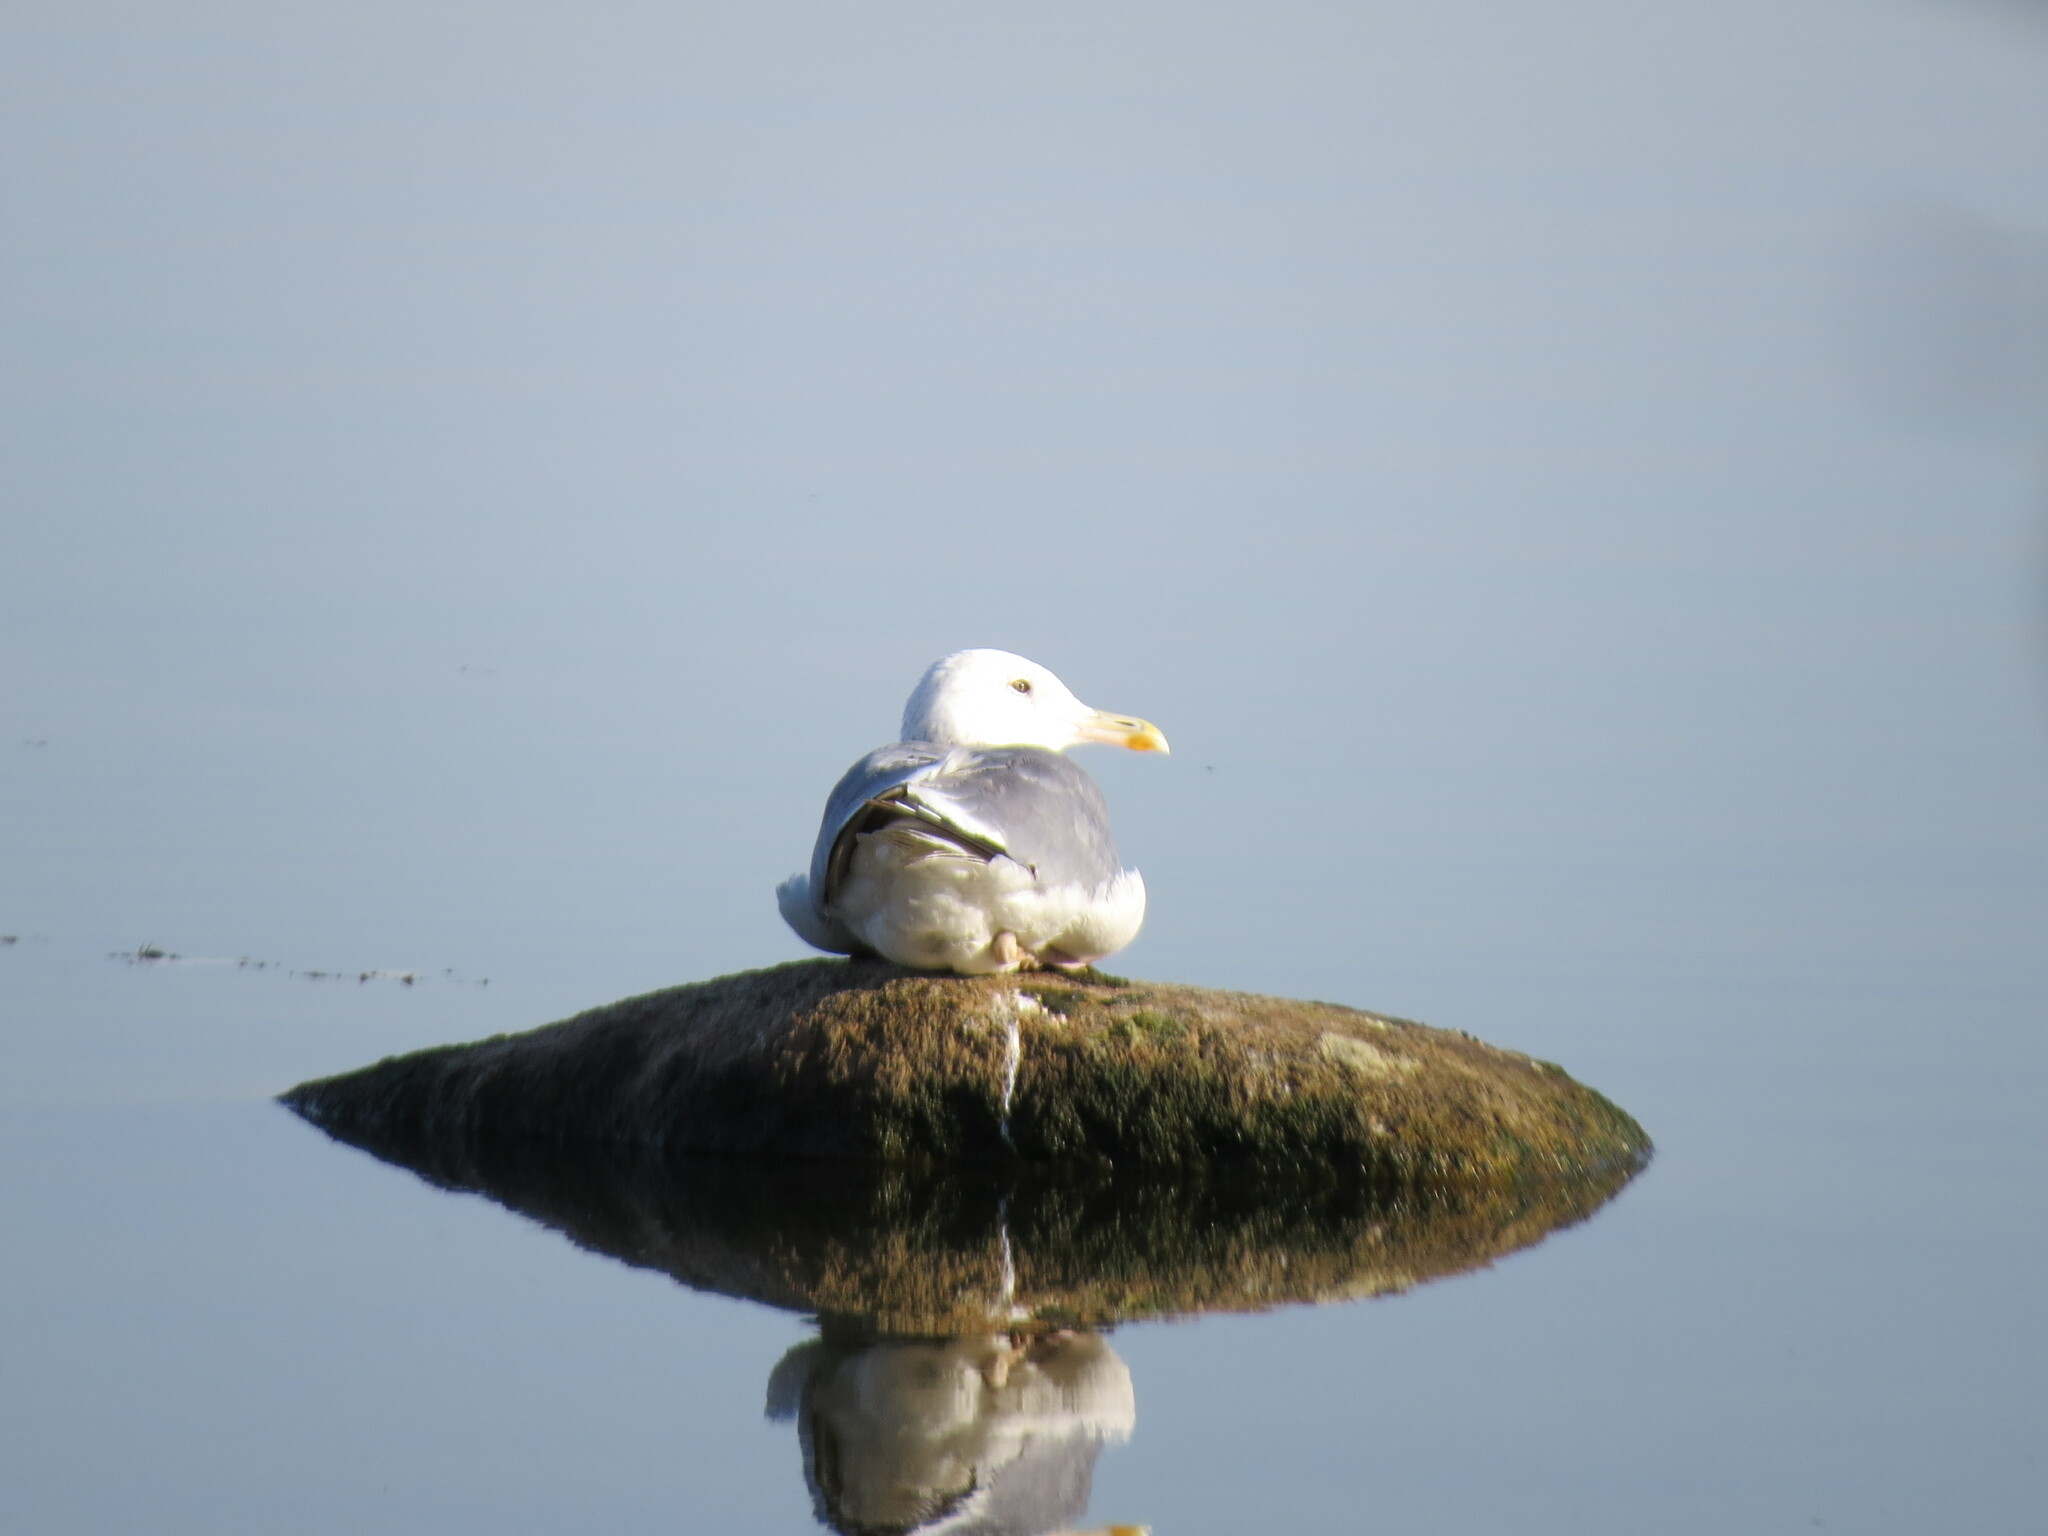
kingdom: Animalia
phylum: Chordata
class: Aves
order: Charadriiformes
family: Laridae
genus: Larus
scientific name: Larus fuscus
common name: Lesser black-backed gull
